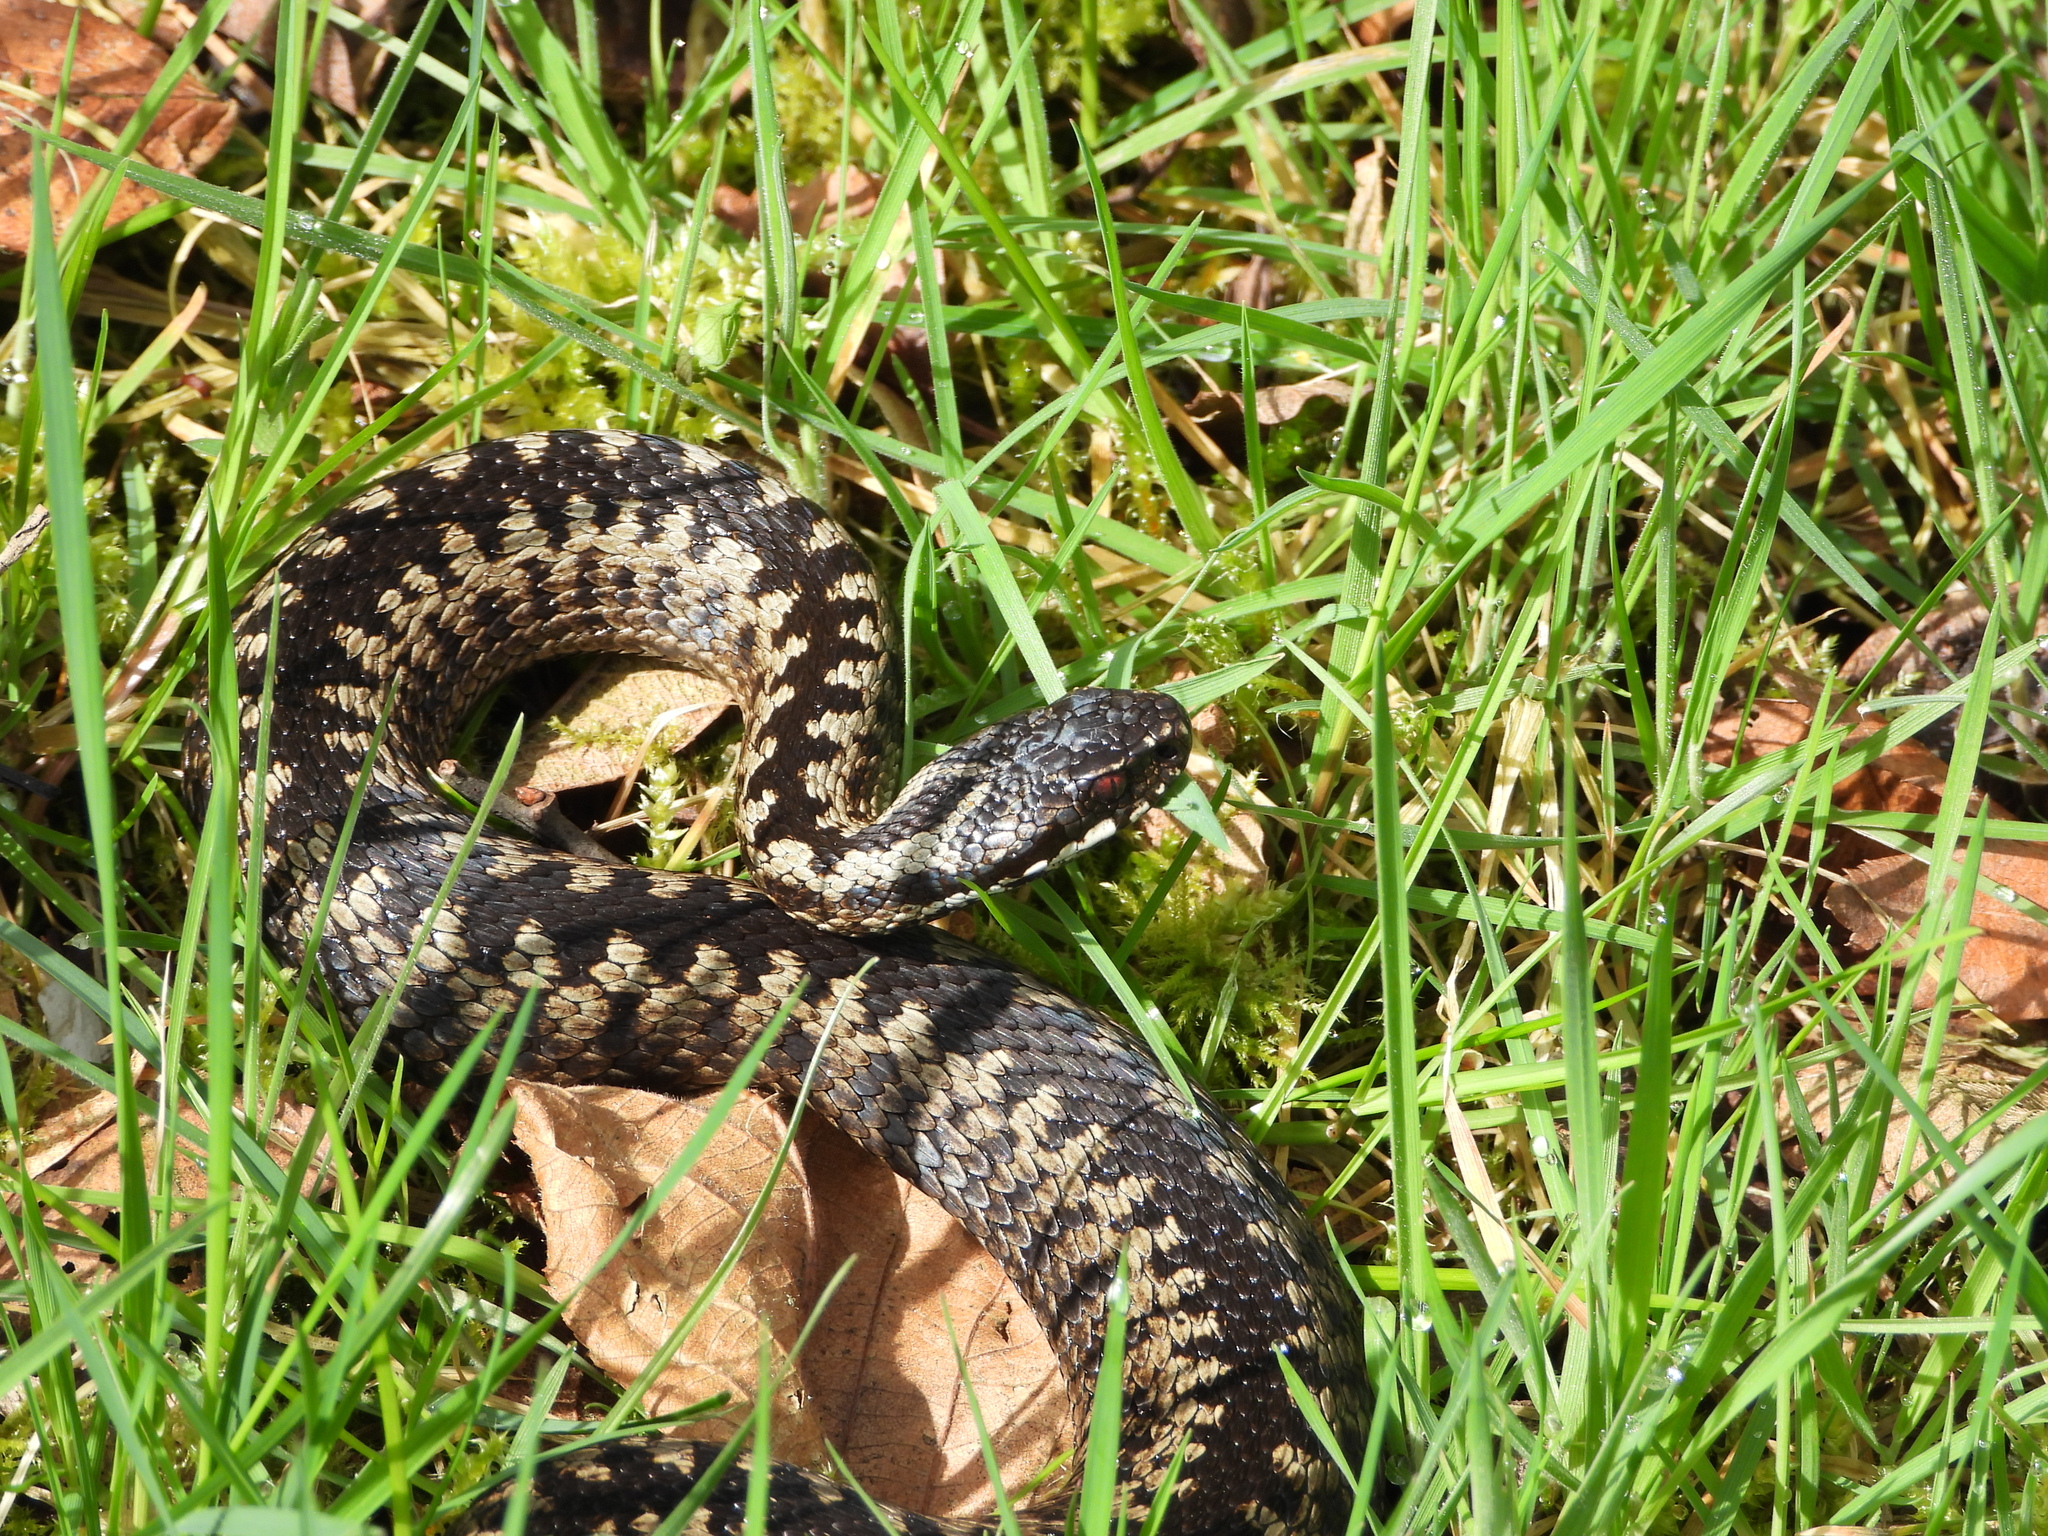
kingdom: Animalia
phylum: Chordata
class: Squamata
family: Viperidae
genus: Vipera
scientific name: Vipera berus
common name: Adder
